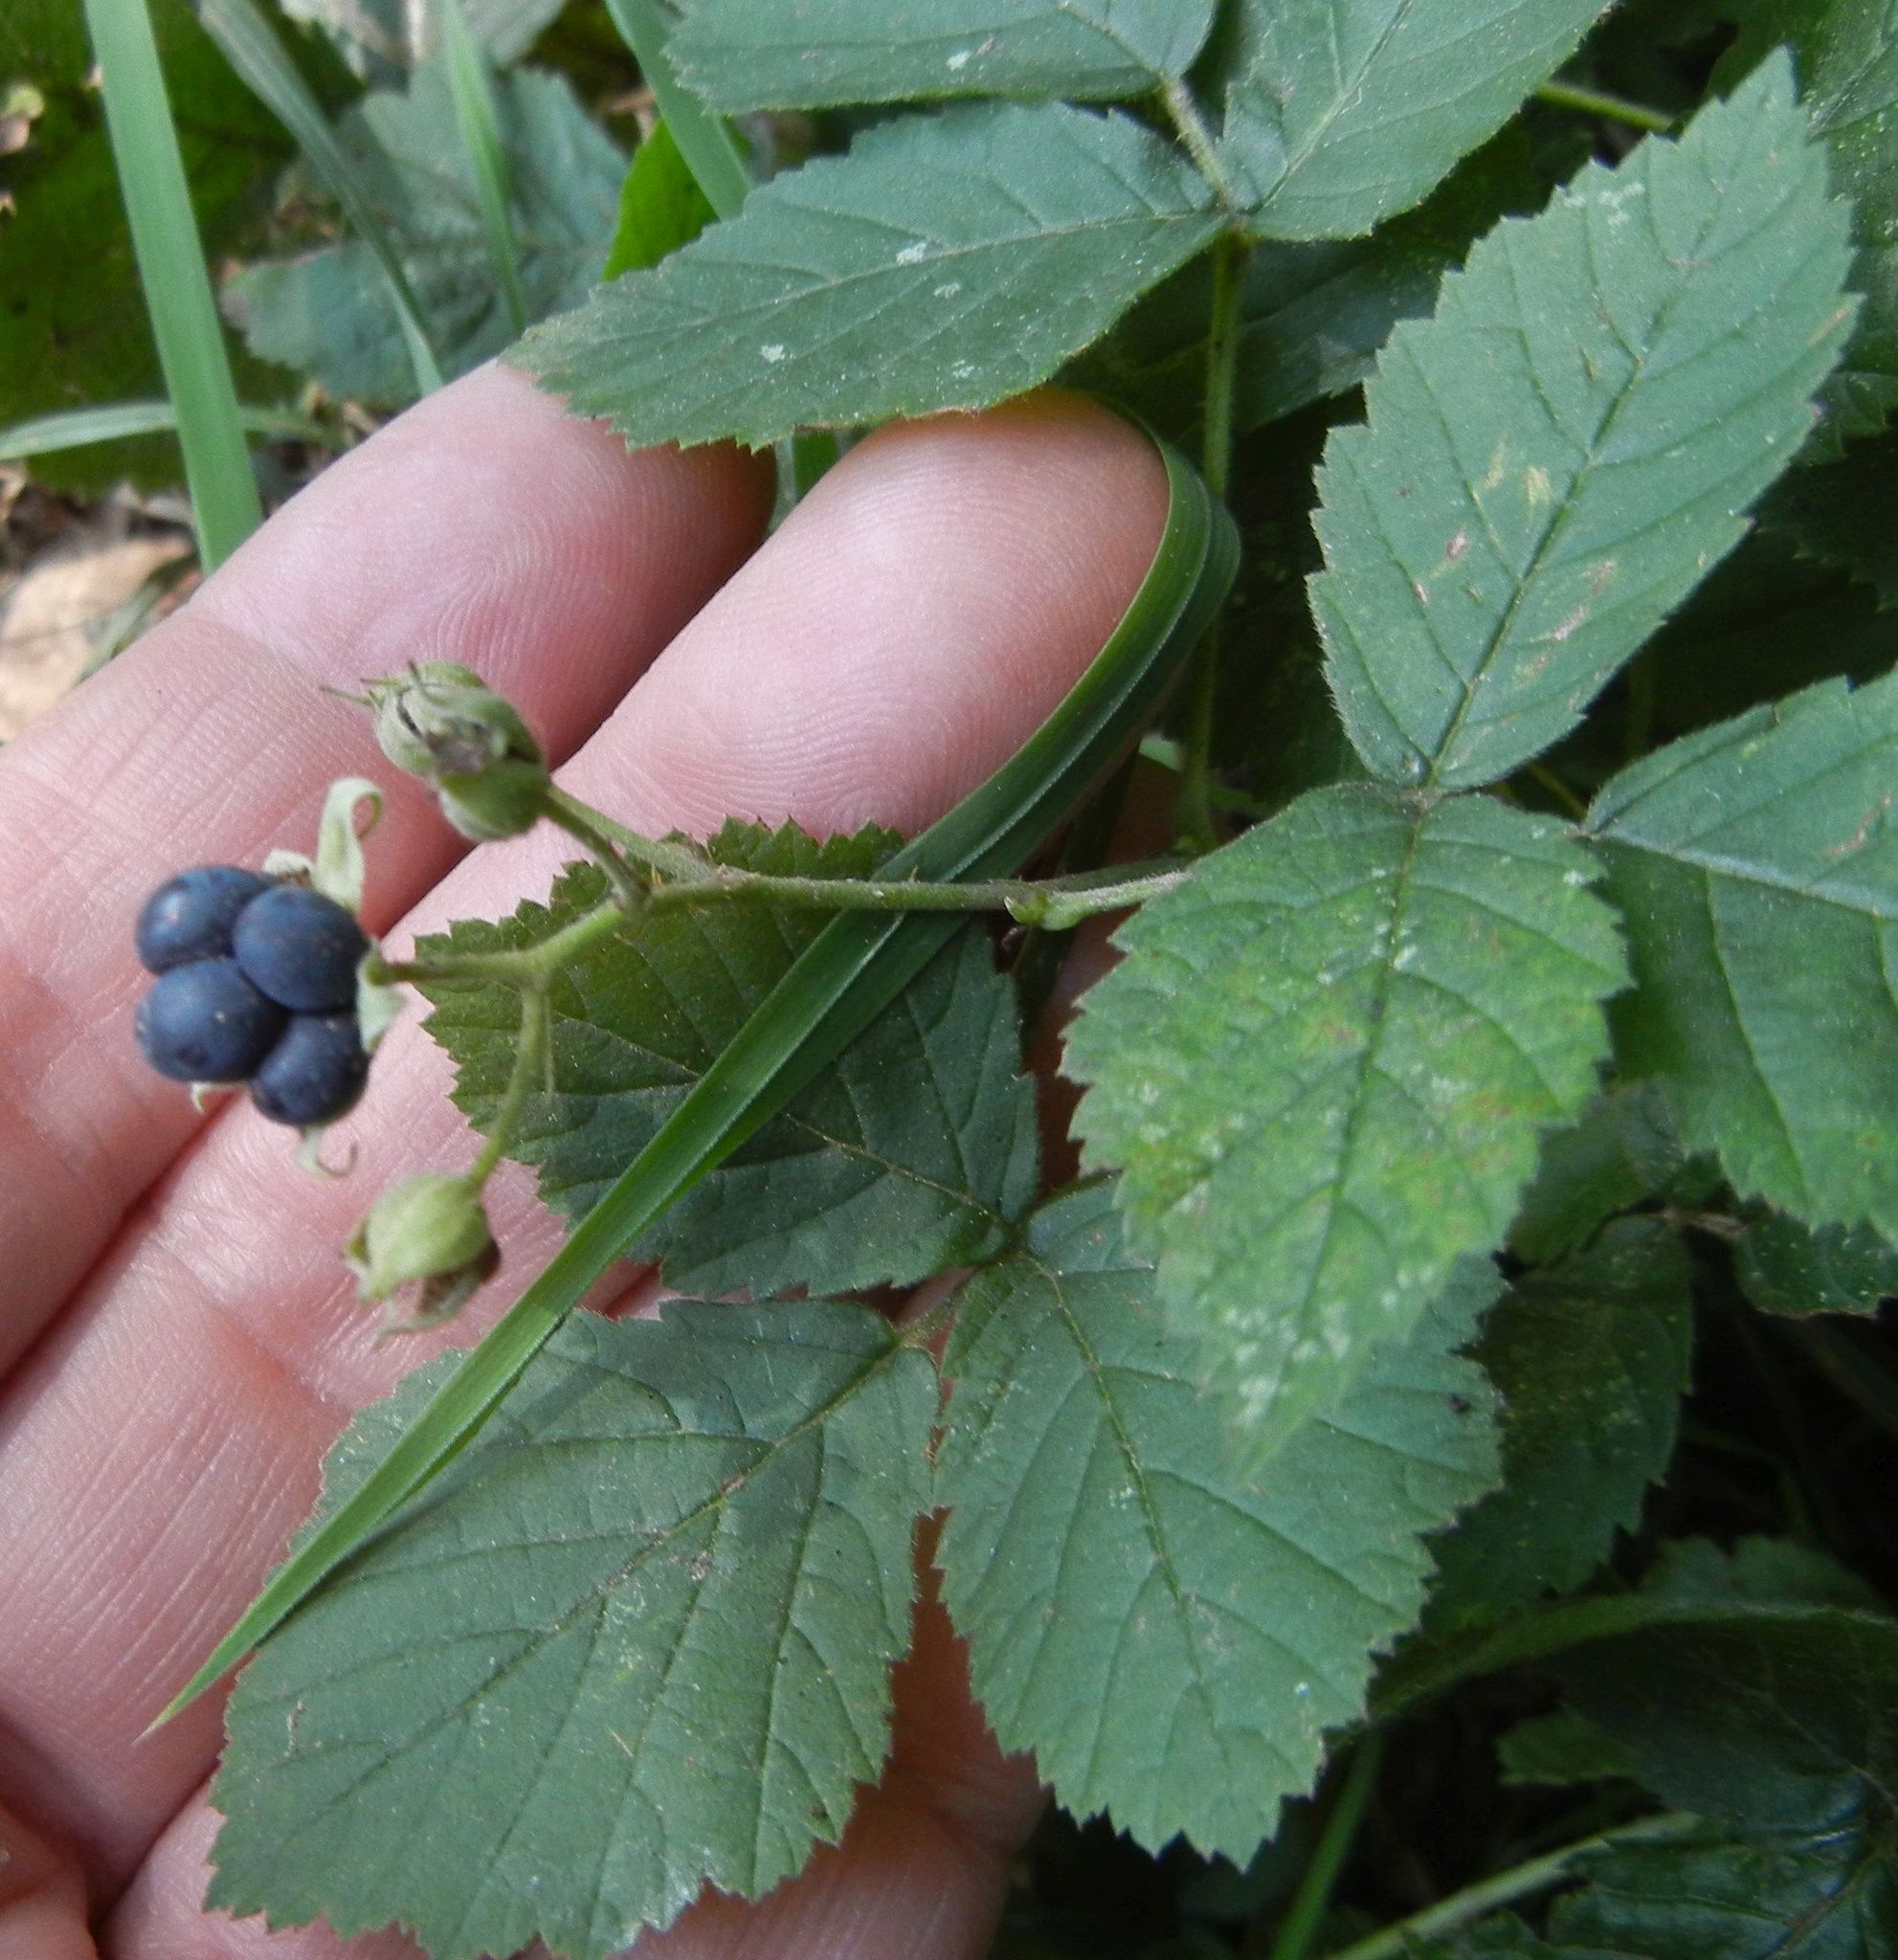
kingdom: Plantae
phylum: Tracheophyta
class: Magnoliopsida
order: Rosales
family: Rosaceae
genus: Rubus
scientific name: Rubus caesius
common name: Dewberry
